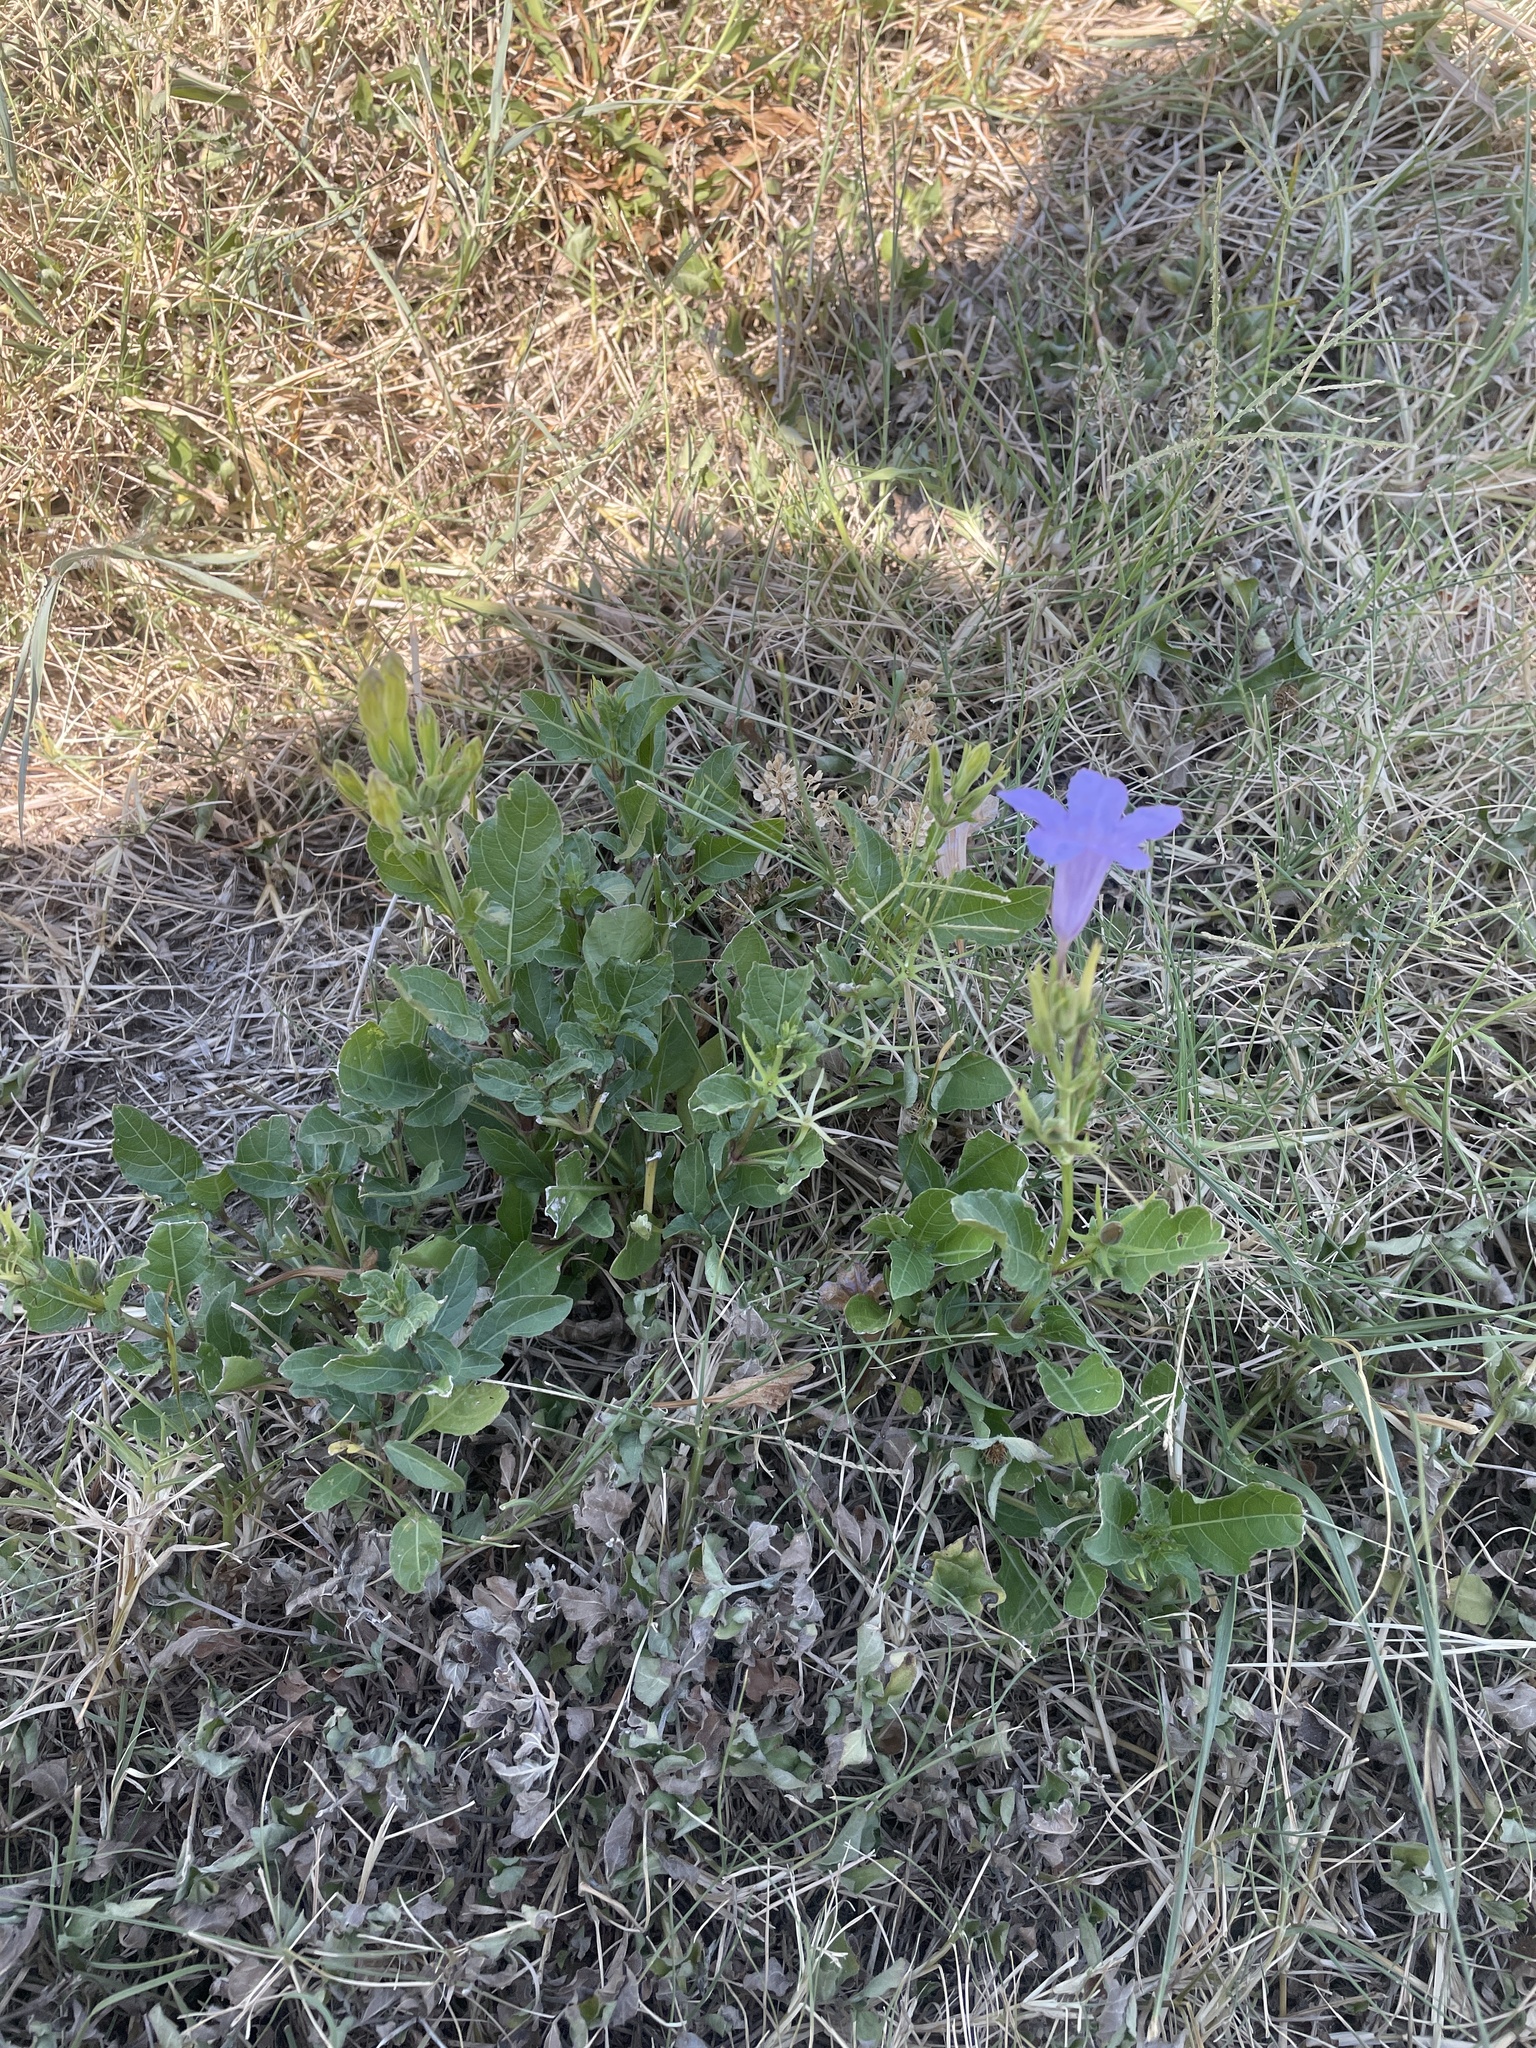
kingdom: Plantae
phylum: Tracheophyta
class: Magnoliopsida
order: Lamiales
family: Acanthaceae
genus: Ruellia
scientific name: Ruellia ciliatiflora
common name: Hairyflower wild petunia
